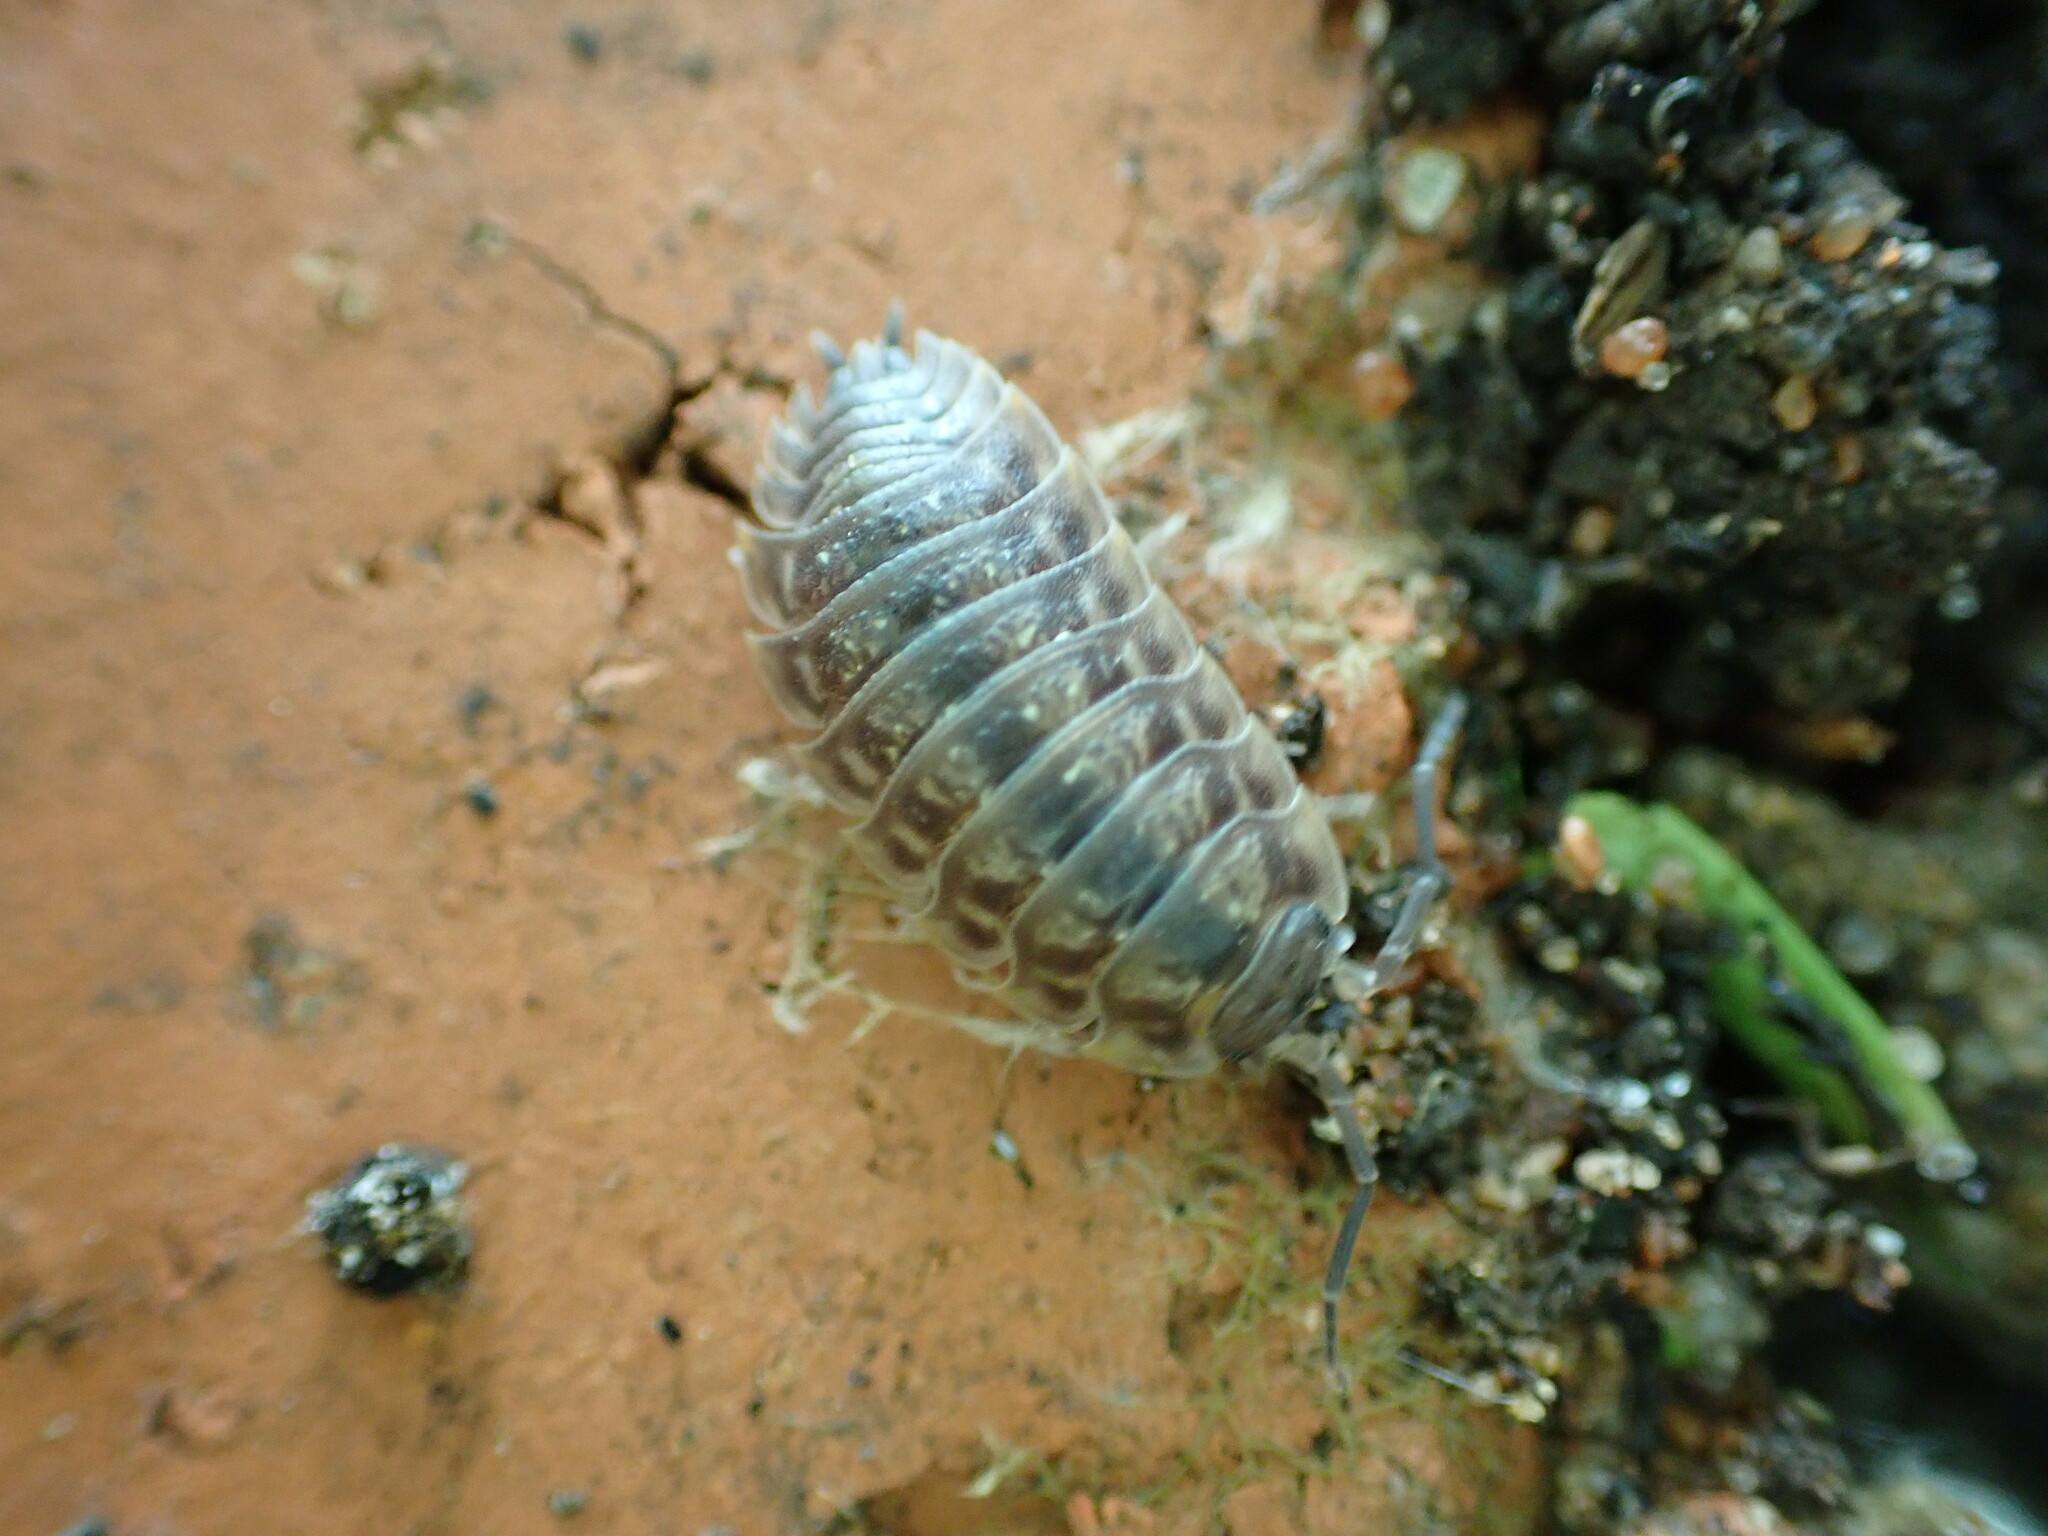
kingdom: Animalia
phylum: Arthropoda
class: Malacostraca
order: Isopoda
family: Oniscidae
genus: Oniscus
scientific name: Oniscus asellus
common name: Common shiny woodlouse
